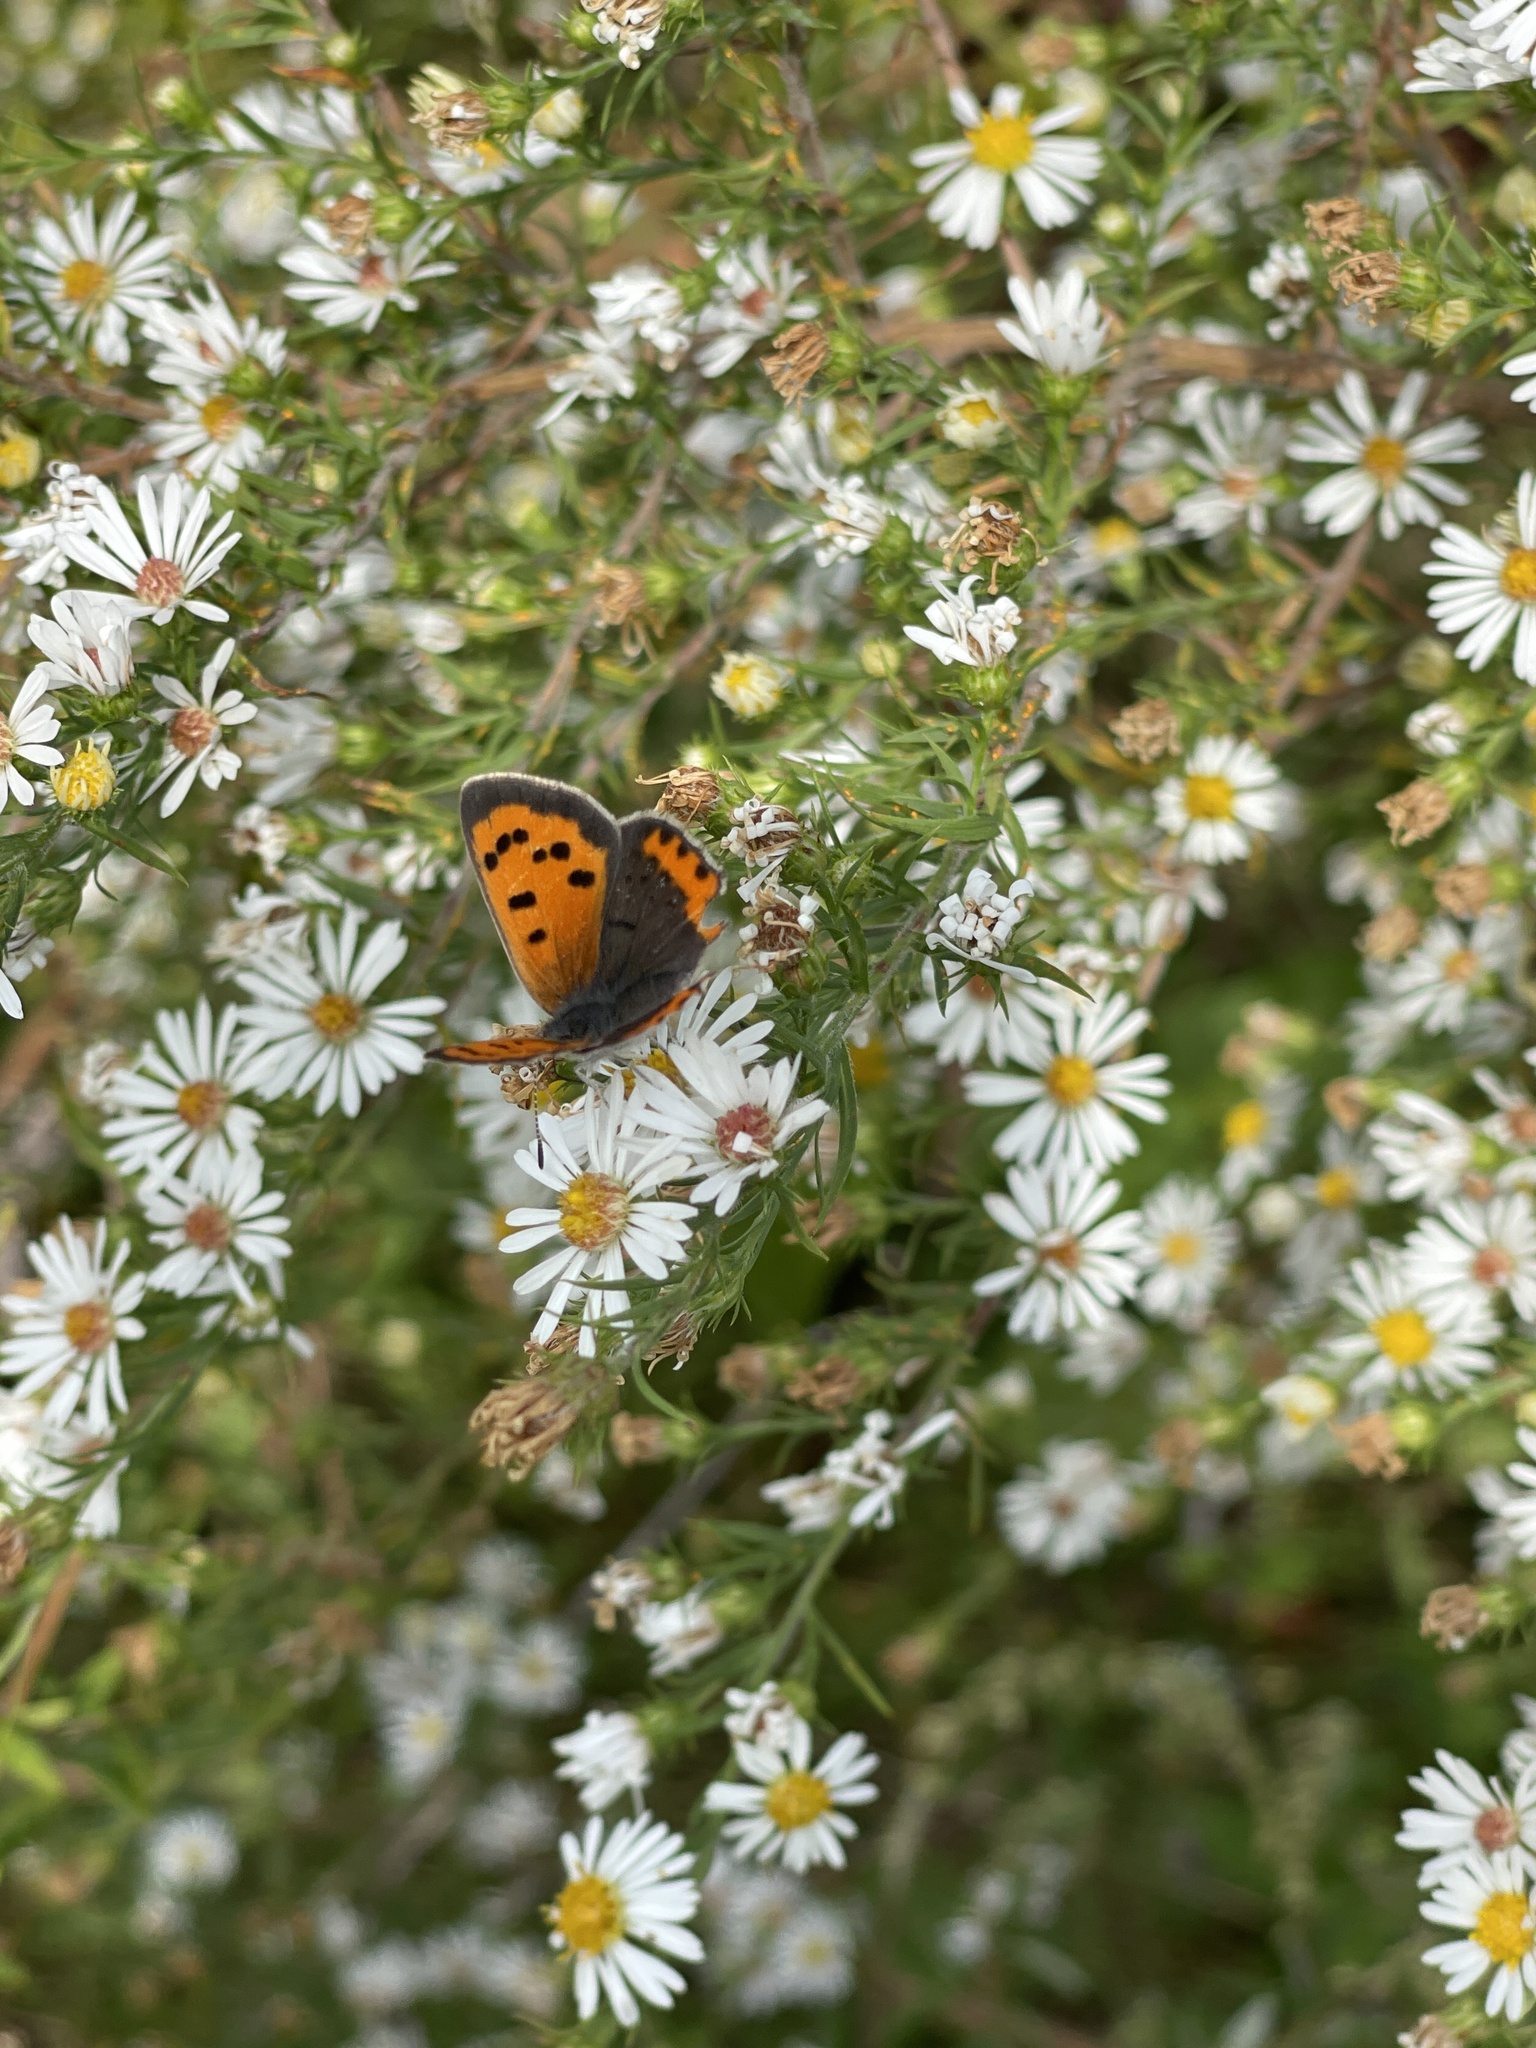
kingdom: Animalia
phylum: Arthropoda
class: Insecta
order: Lepidoptera
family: Lycaenidae
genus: Lycaena
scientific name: Lycaena hypophlaeas
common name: American copper
